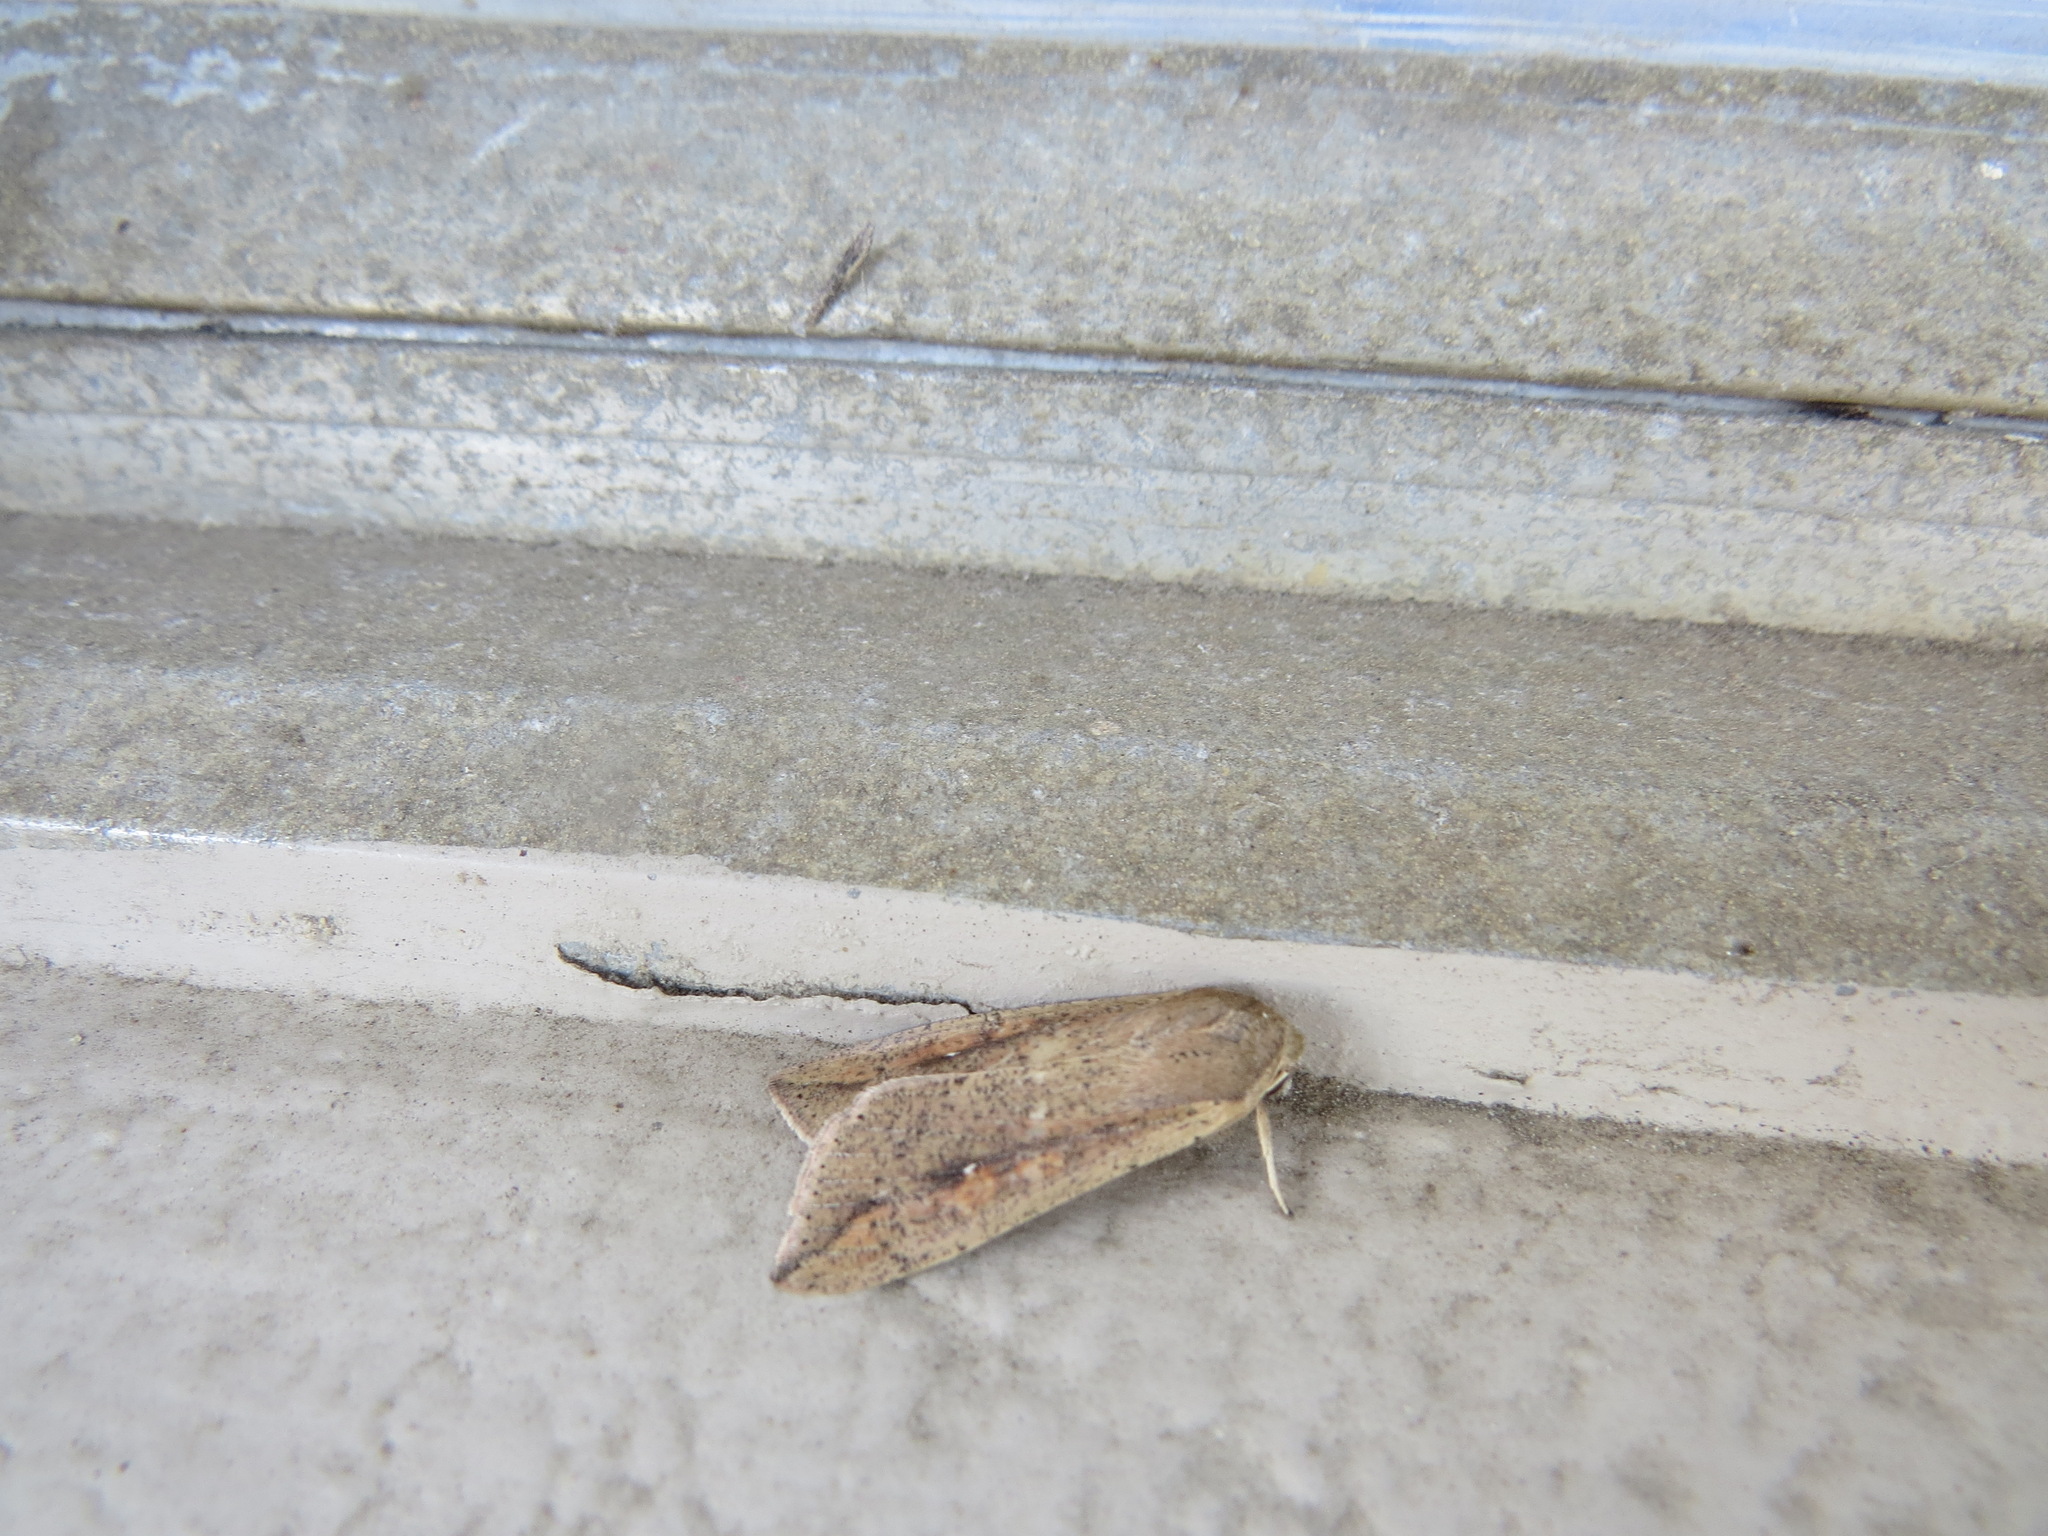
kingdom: Animalia
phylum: Arthropoda
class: Insecta
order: Lepidoptera
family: Noctuidae
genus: Mythimna
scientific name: Mythimna unipuncta
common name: White-speck
